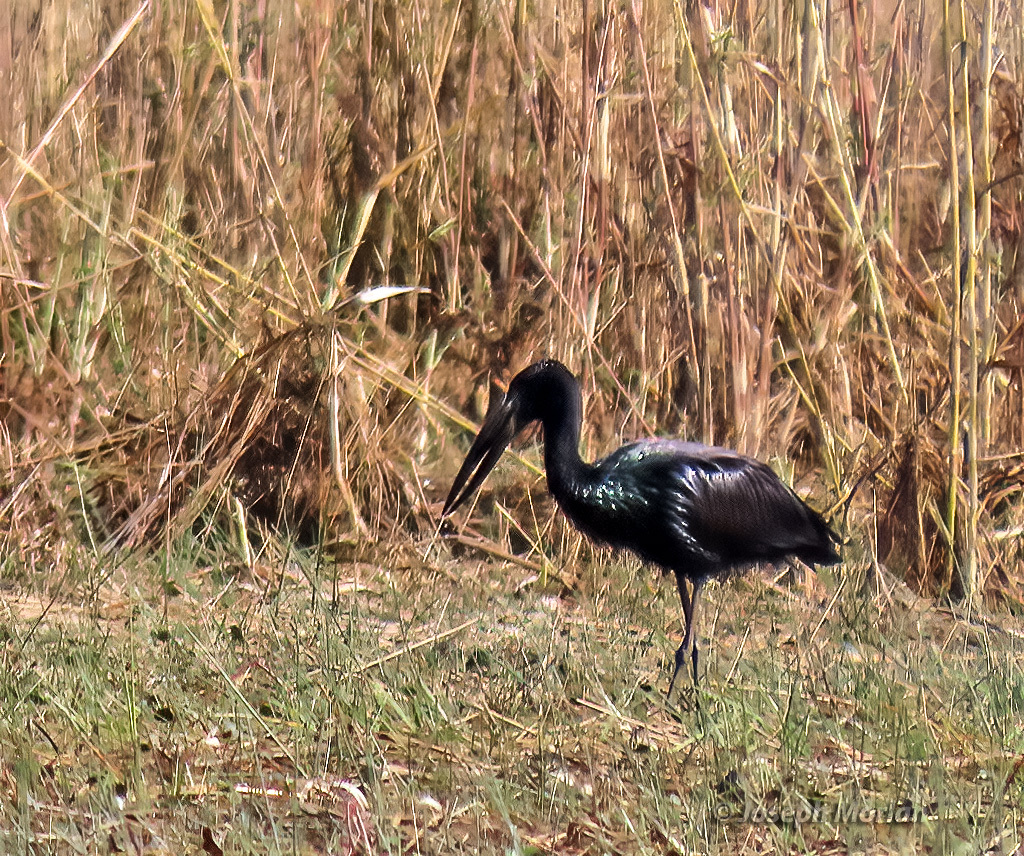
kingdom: Animalia
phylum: Chordata
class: Aves
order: Ciconiiformes
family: Ciconiidae
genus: Anastomus
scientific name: Anastomus lamelligerus
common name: African openbill
